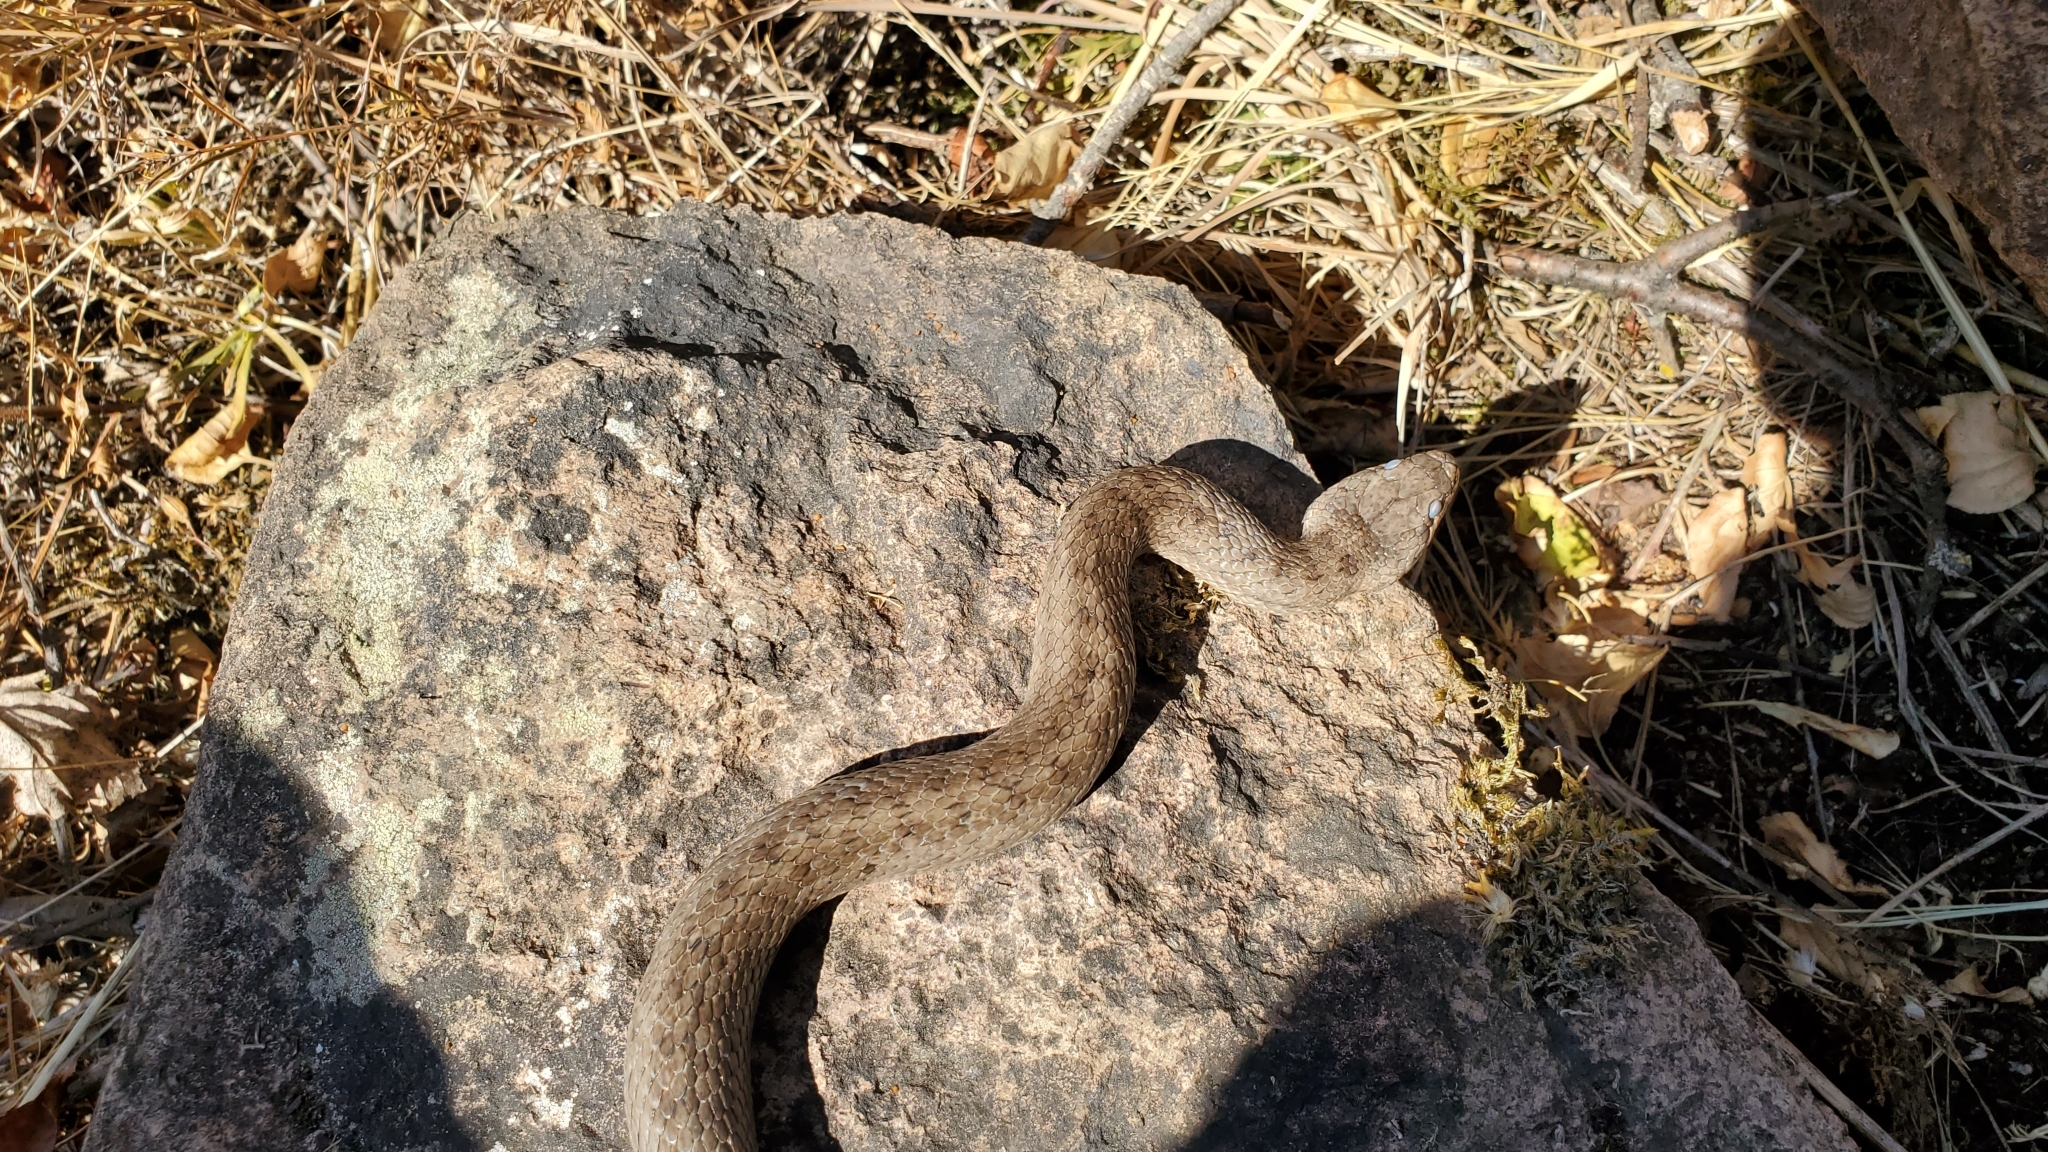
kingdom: Animalia
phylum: Chordata
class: Squamata
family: Colubridae
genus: Coronella
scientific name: Coronella austriaca
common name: Smooth snake
